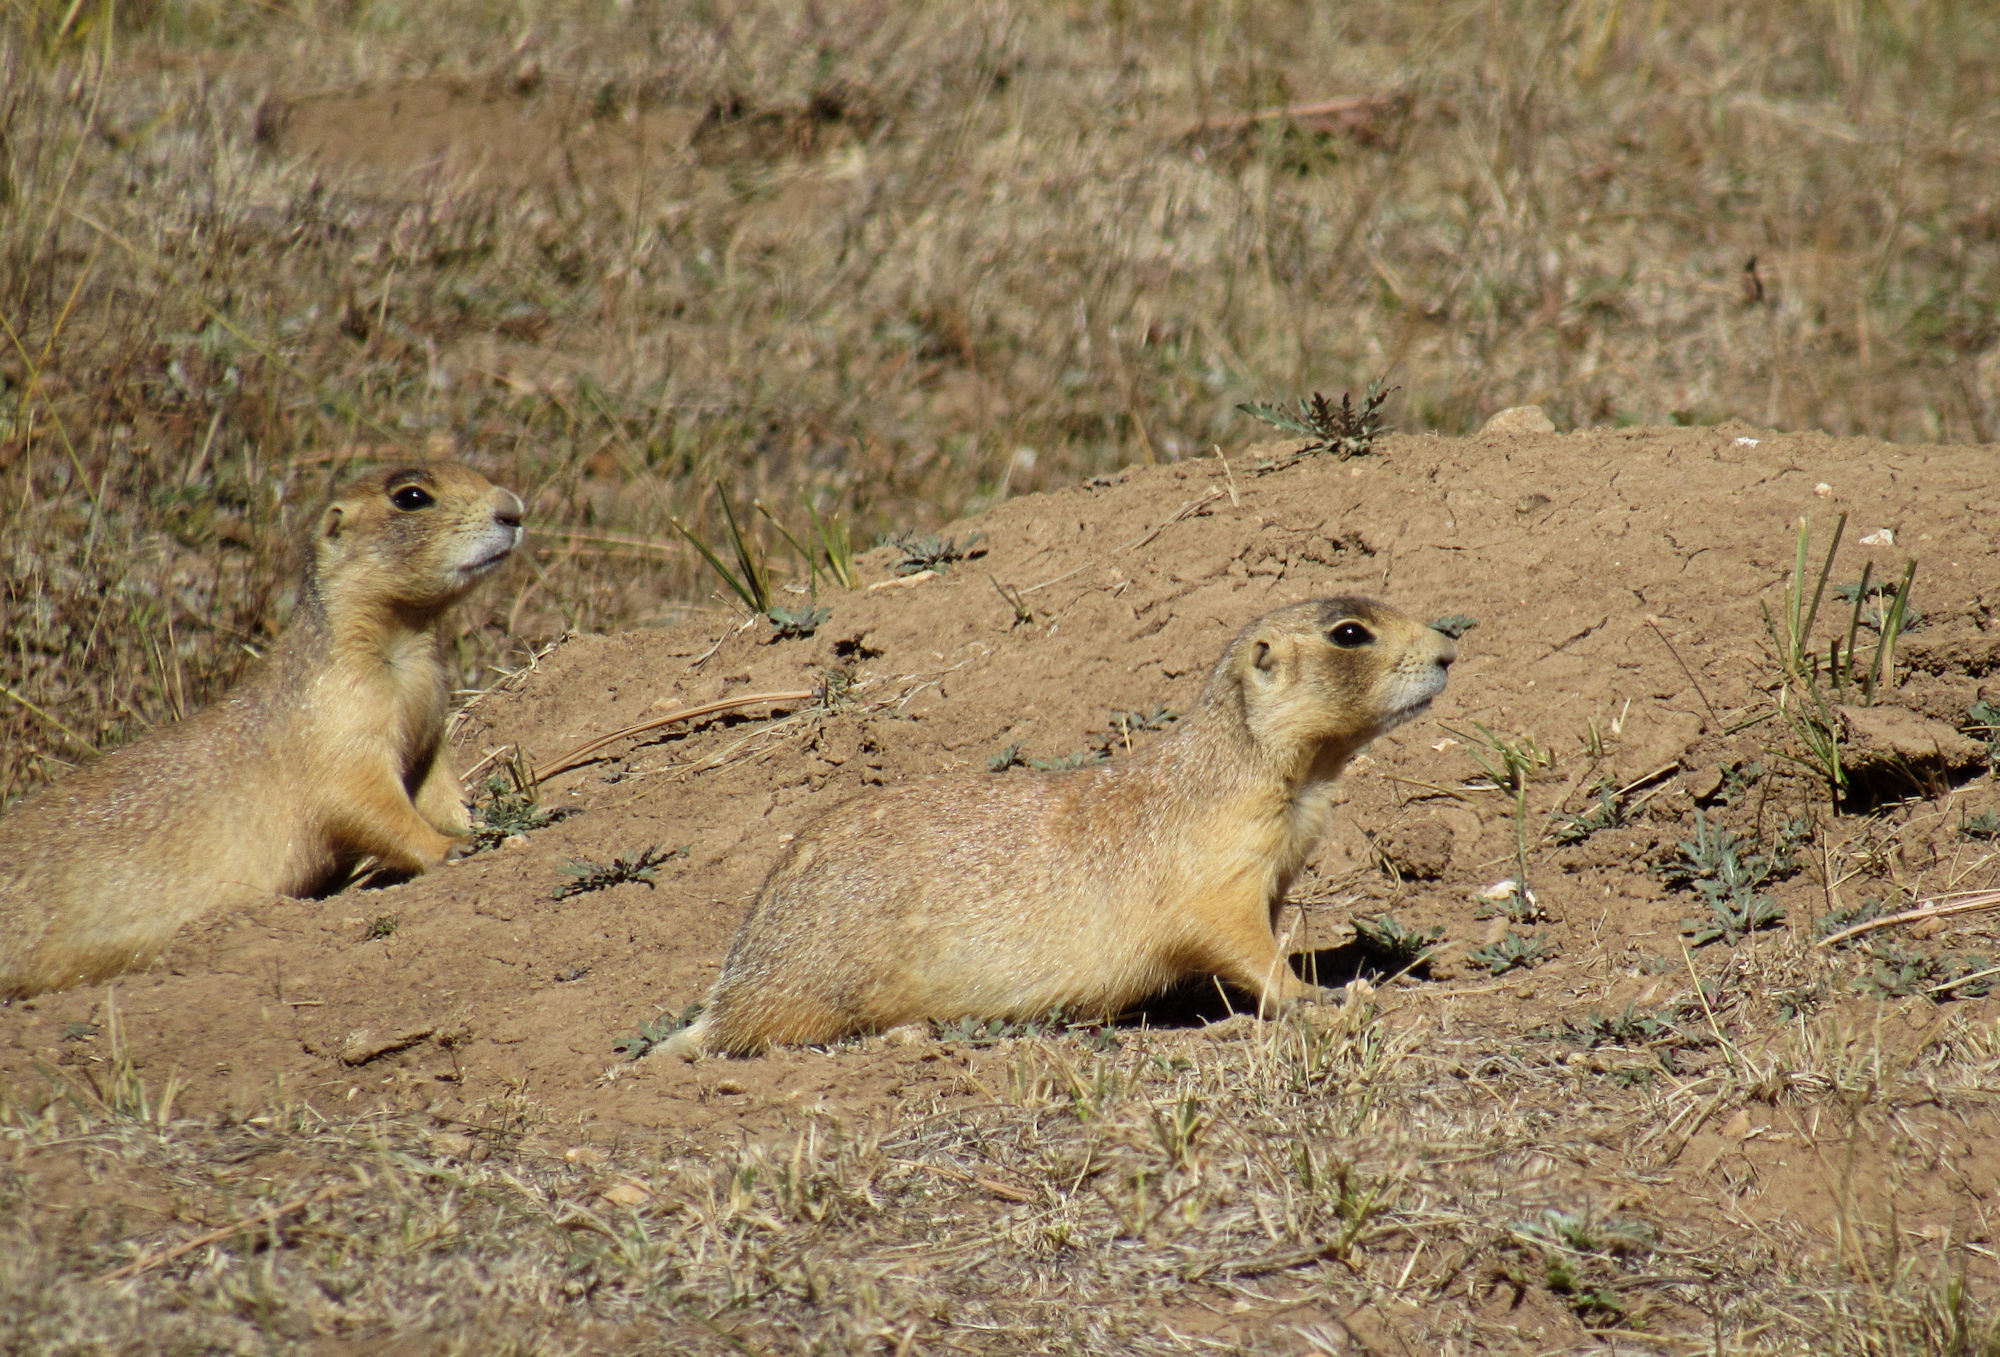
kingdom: Animalia
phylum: Chordata
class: Mammalia
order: Rodentia
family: Sciuridae
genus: Cynomys
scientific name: Cynomys parvidens
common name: Utah prairie dog
